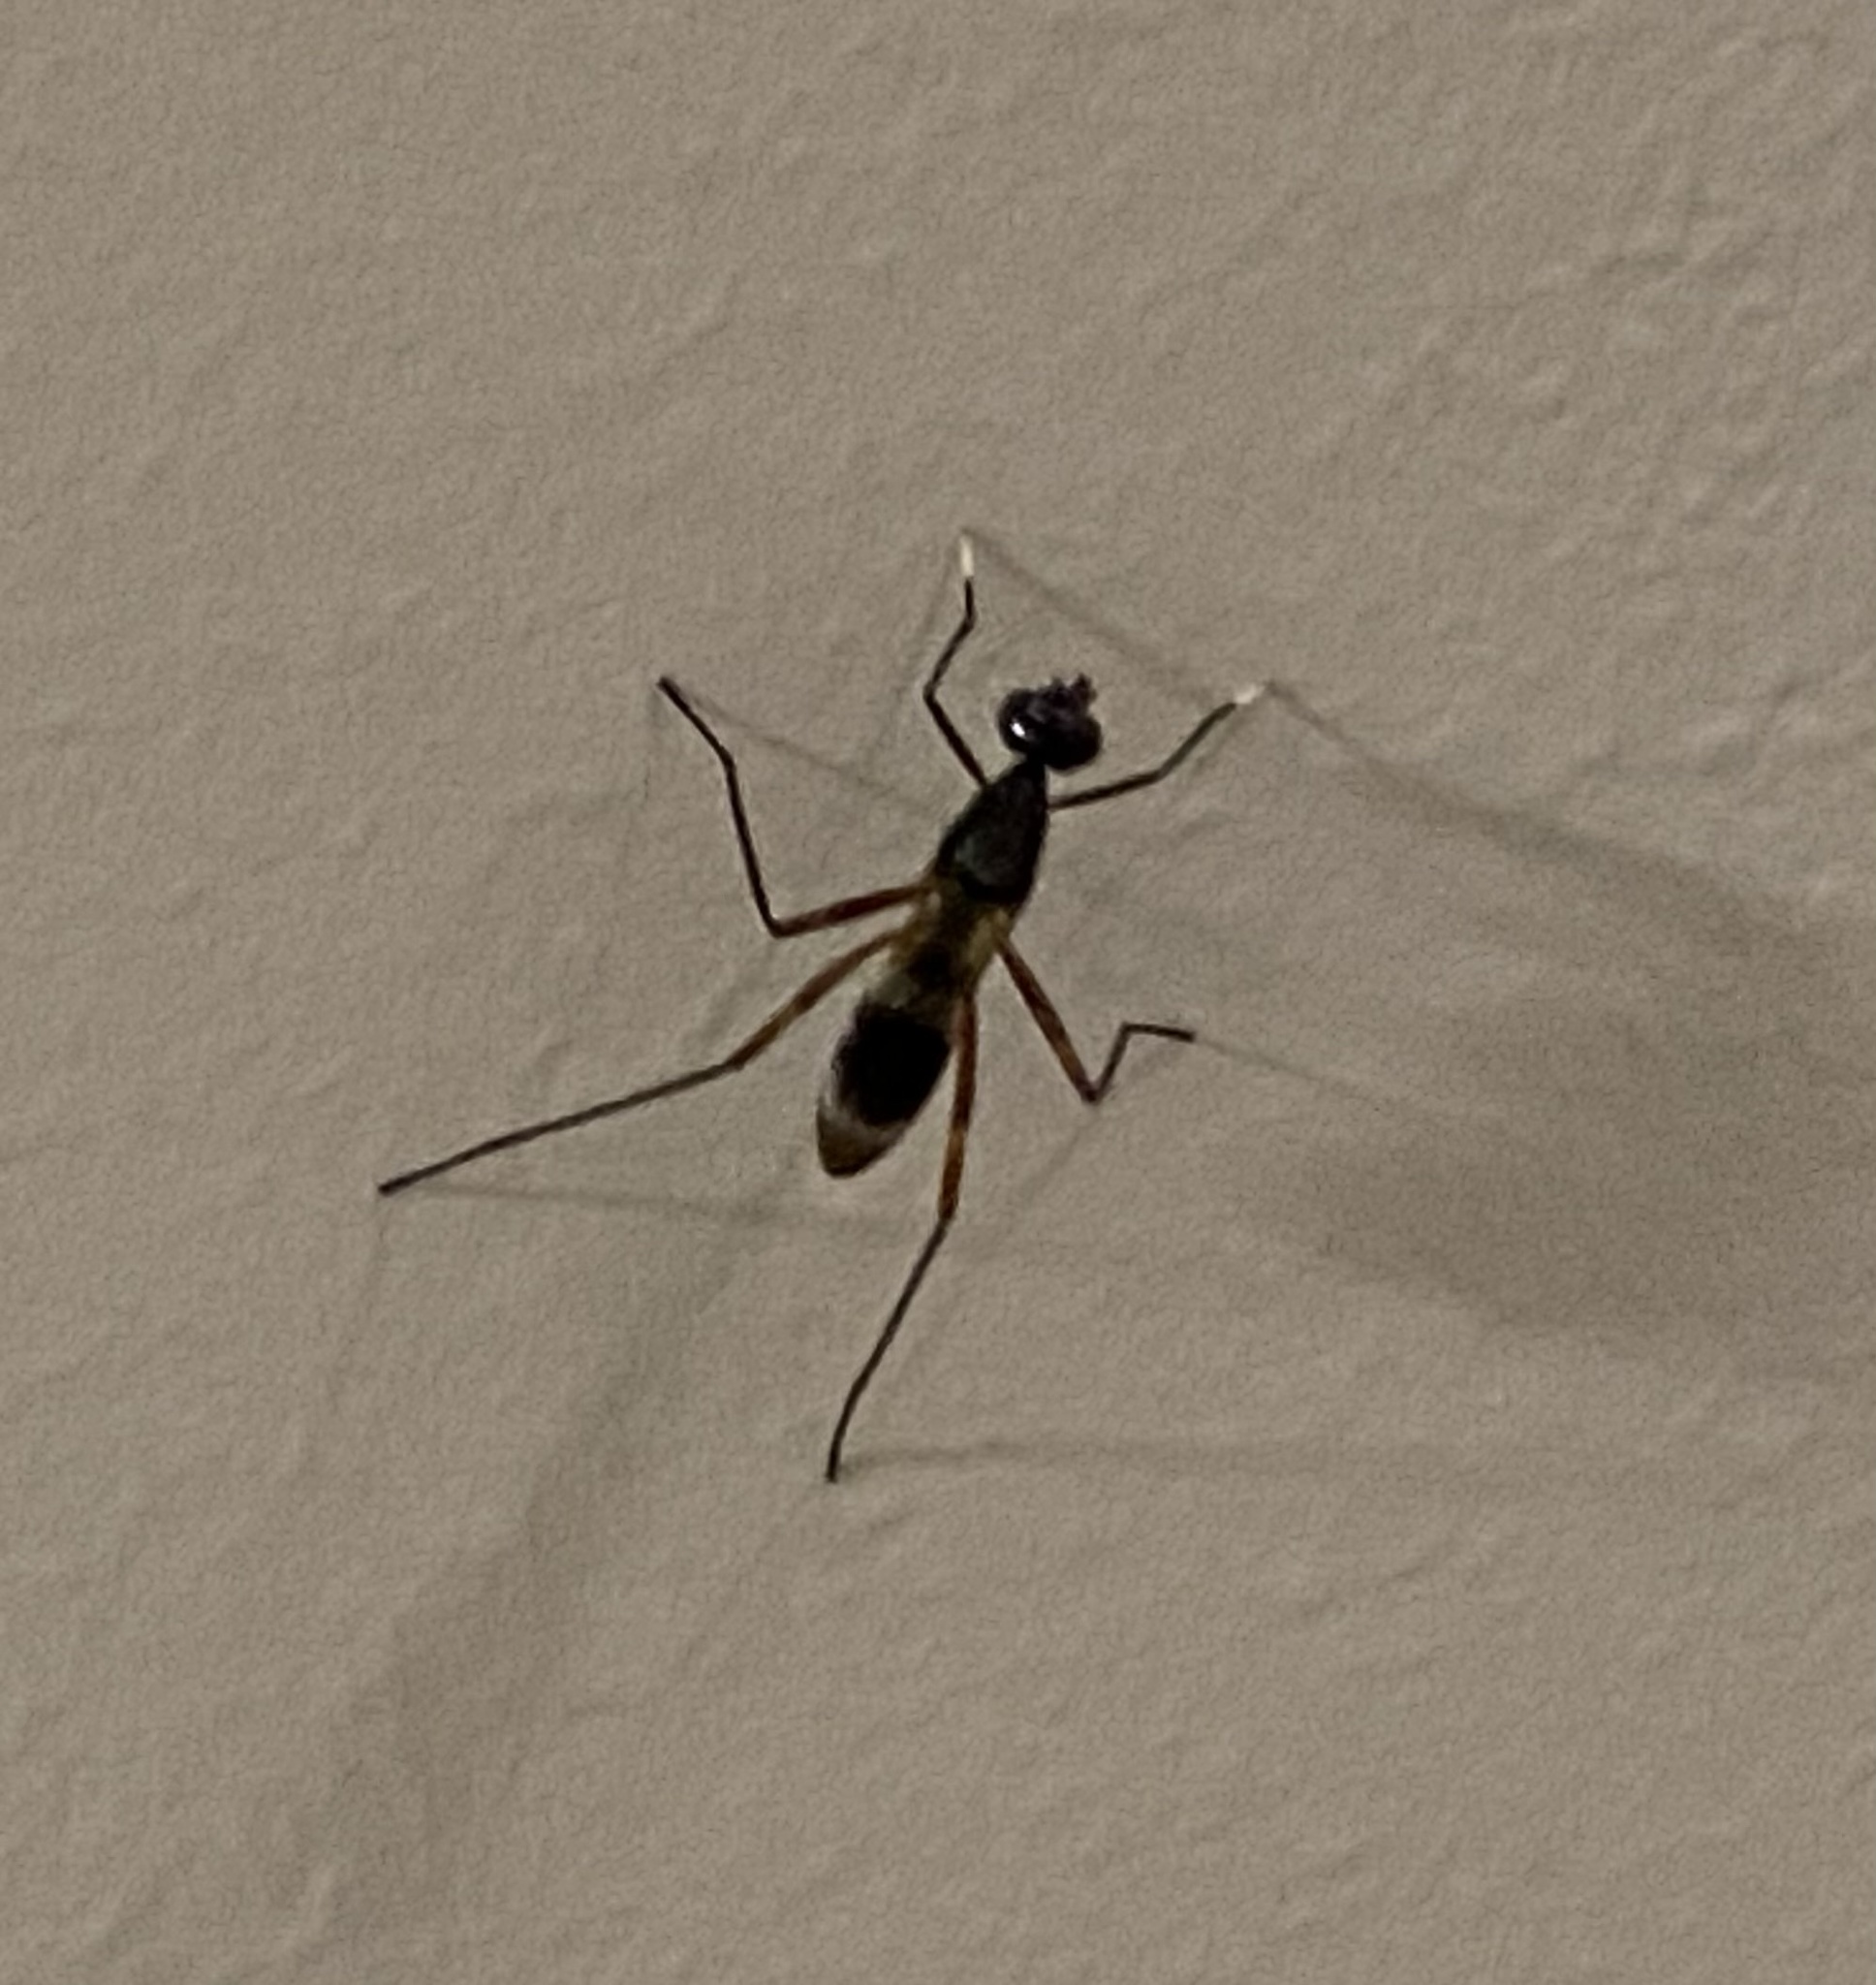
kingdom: Animalia
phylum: Arthropoda
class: Insecta
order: Diptera
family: Micropezidae
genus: Taeniaptera
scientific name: Taeniaptera trivittata
